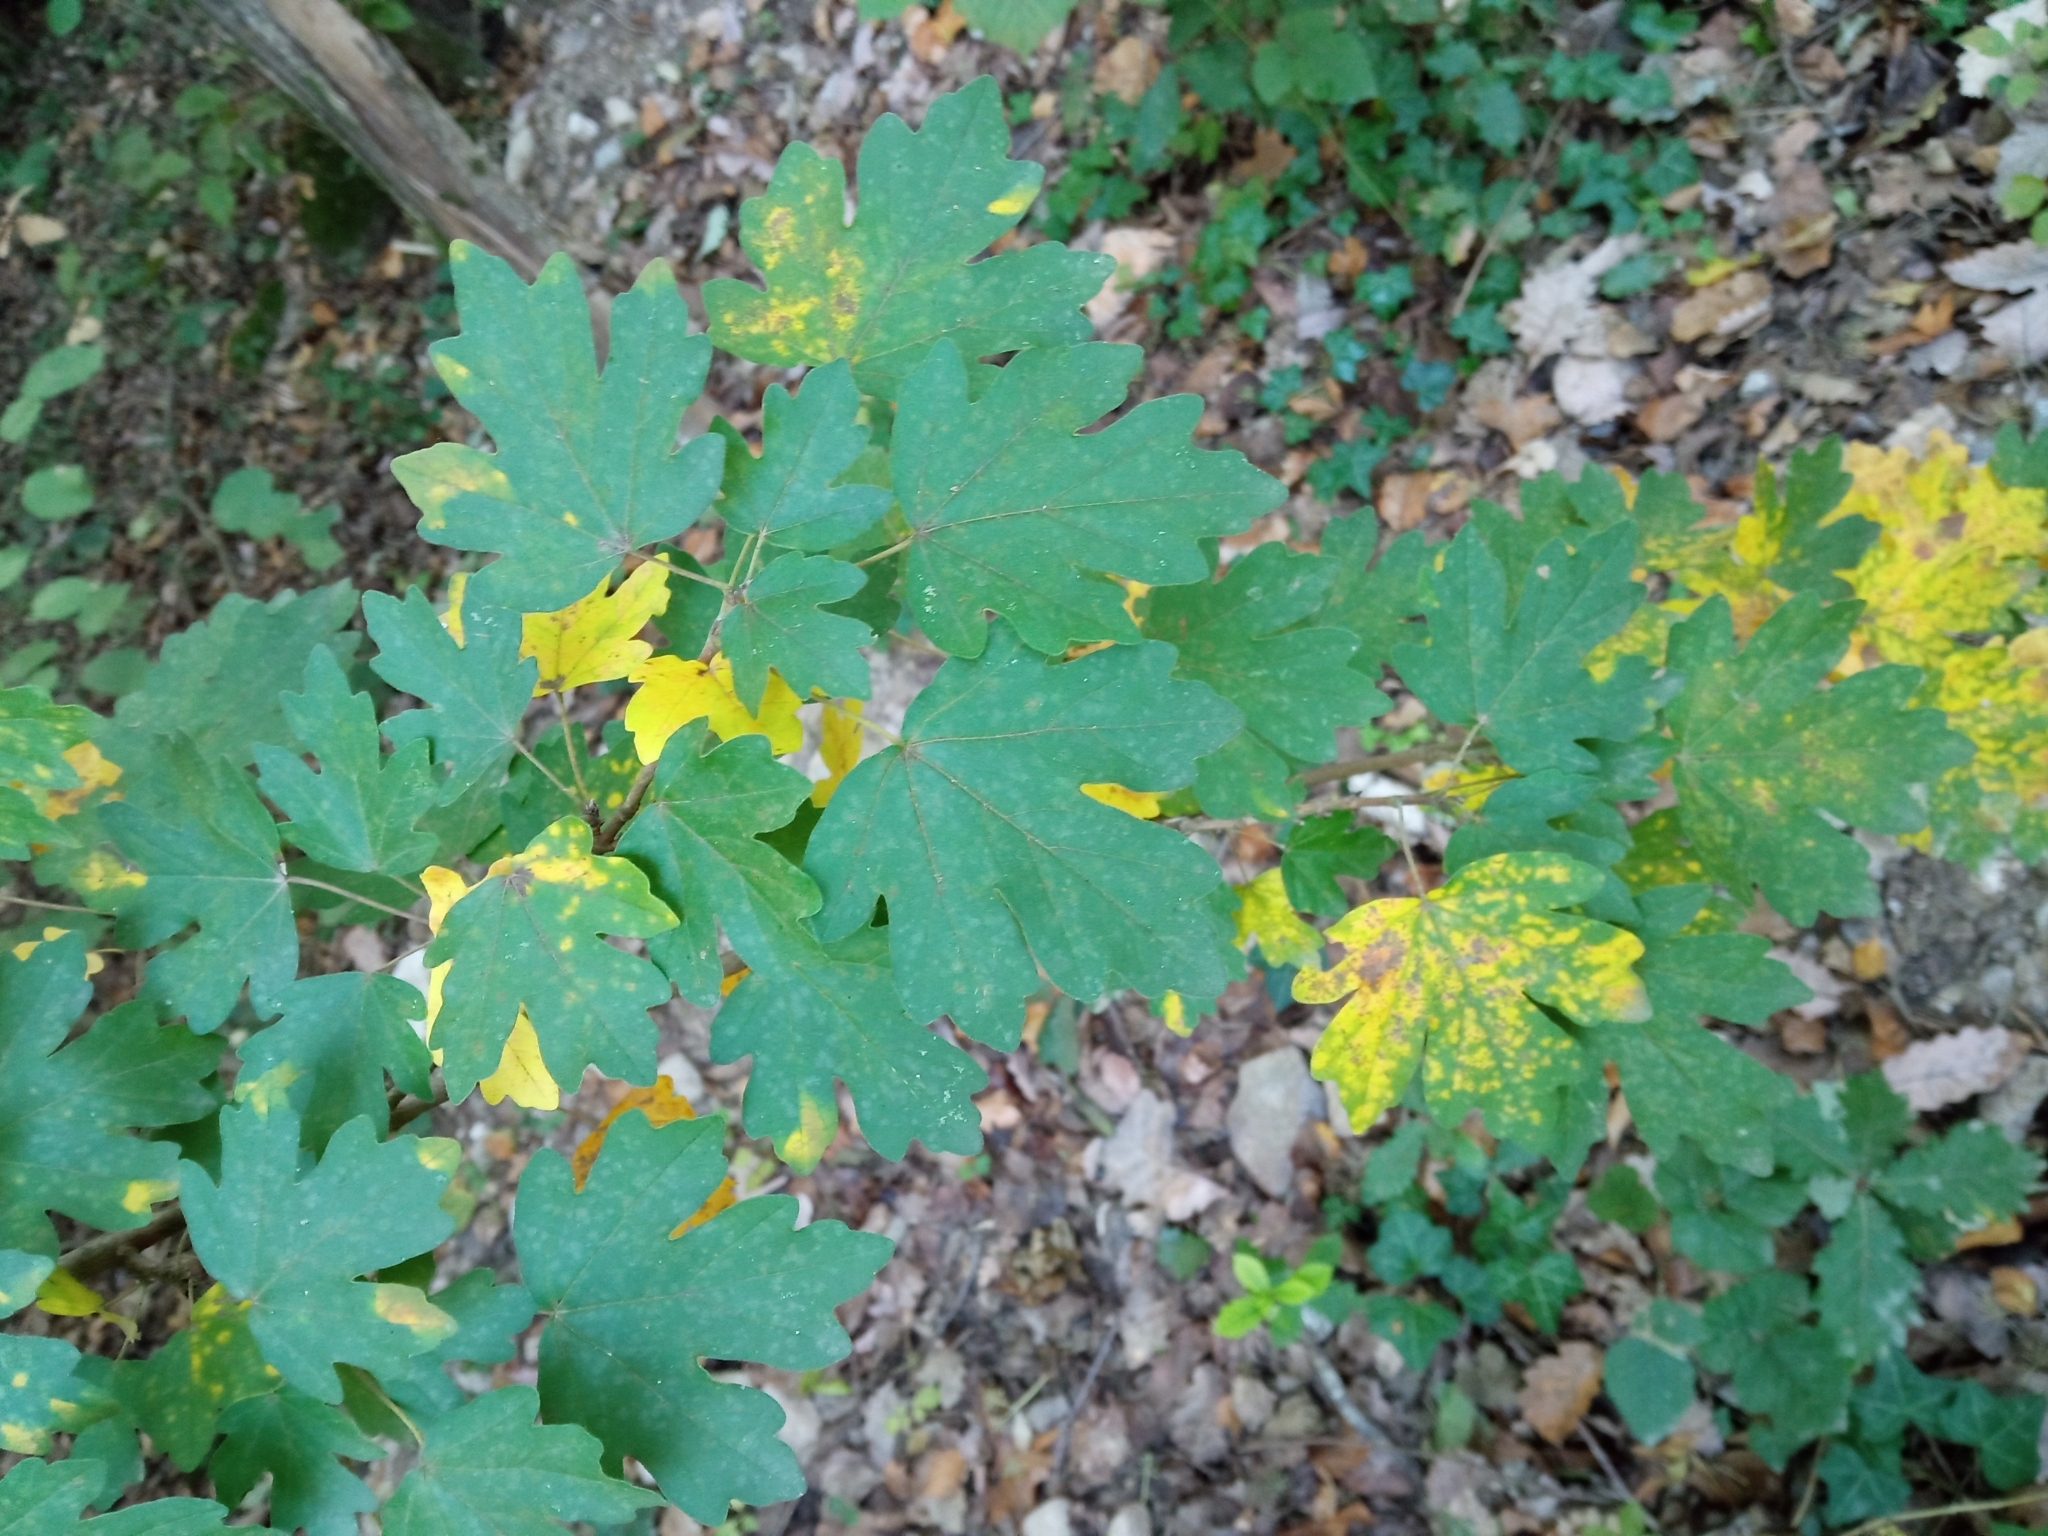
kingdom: Plantae
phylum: Tracheophyta
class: Magnoliopsida
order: Sapindales
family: Sapindaceae
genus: Acer
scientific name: Acer campestre
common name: Field maple
